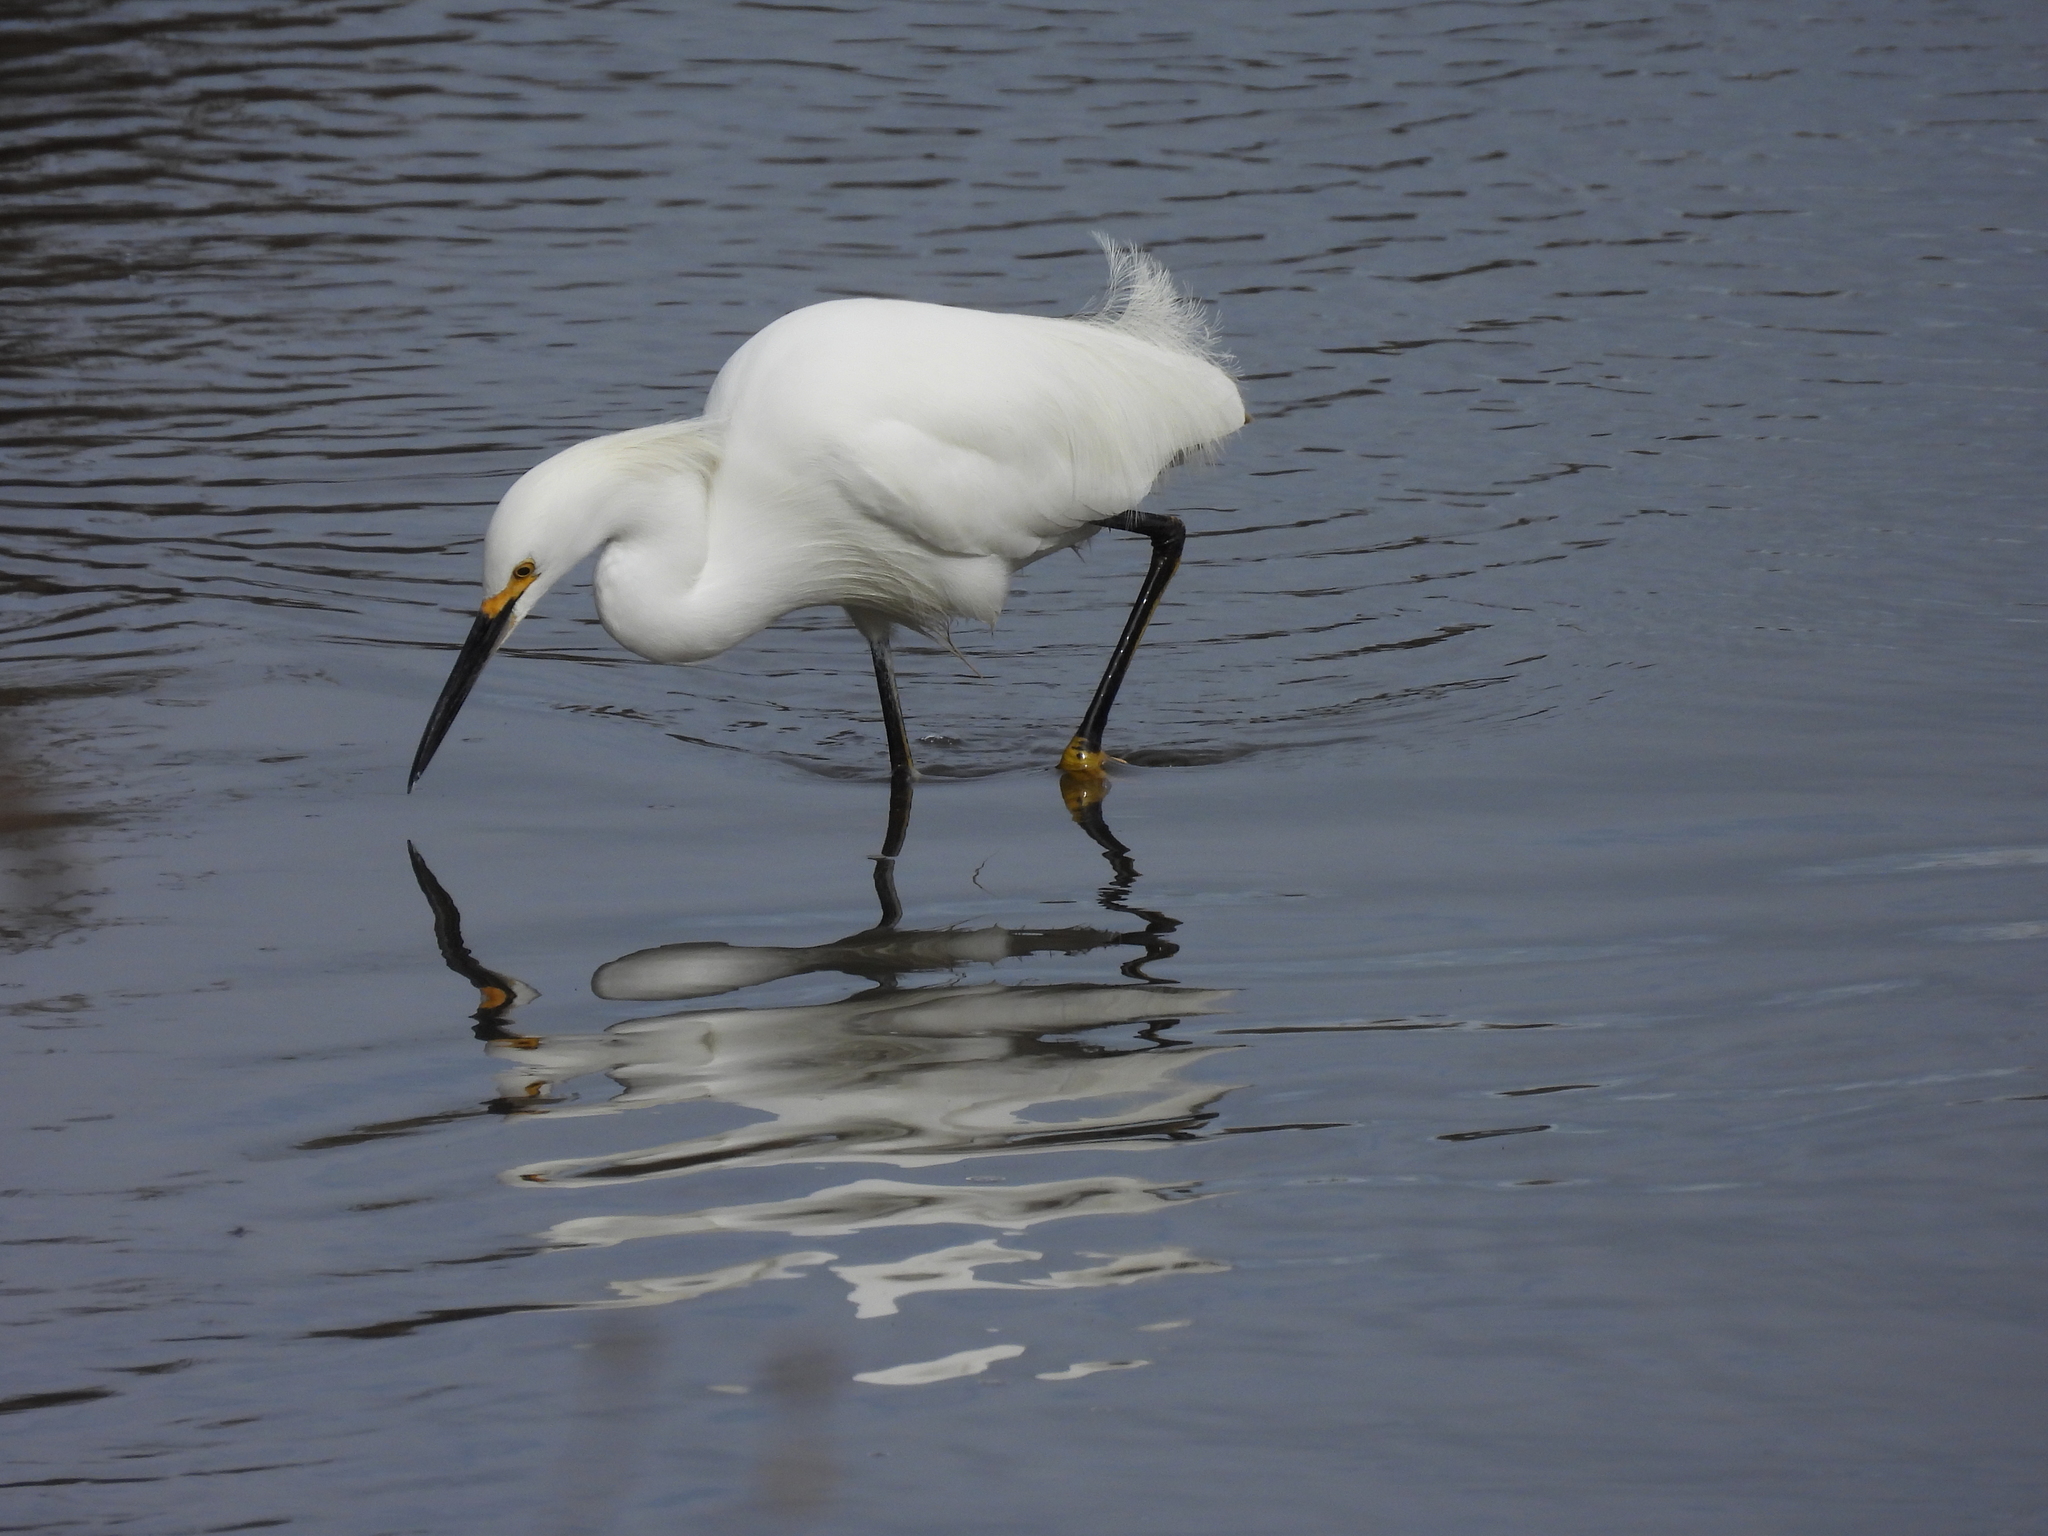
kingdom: Animalia
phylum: Chordata
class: Aves
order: Pelecaniformes
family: Ardeidae
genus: Egretta
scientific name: Egretta thula
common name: Snowy egret
